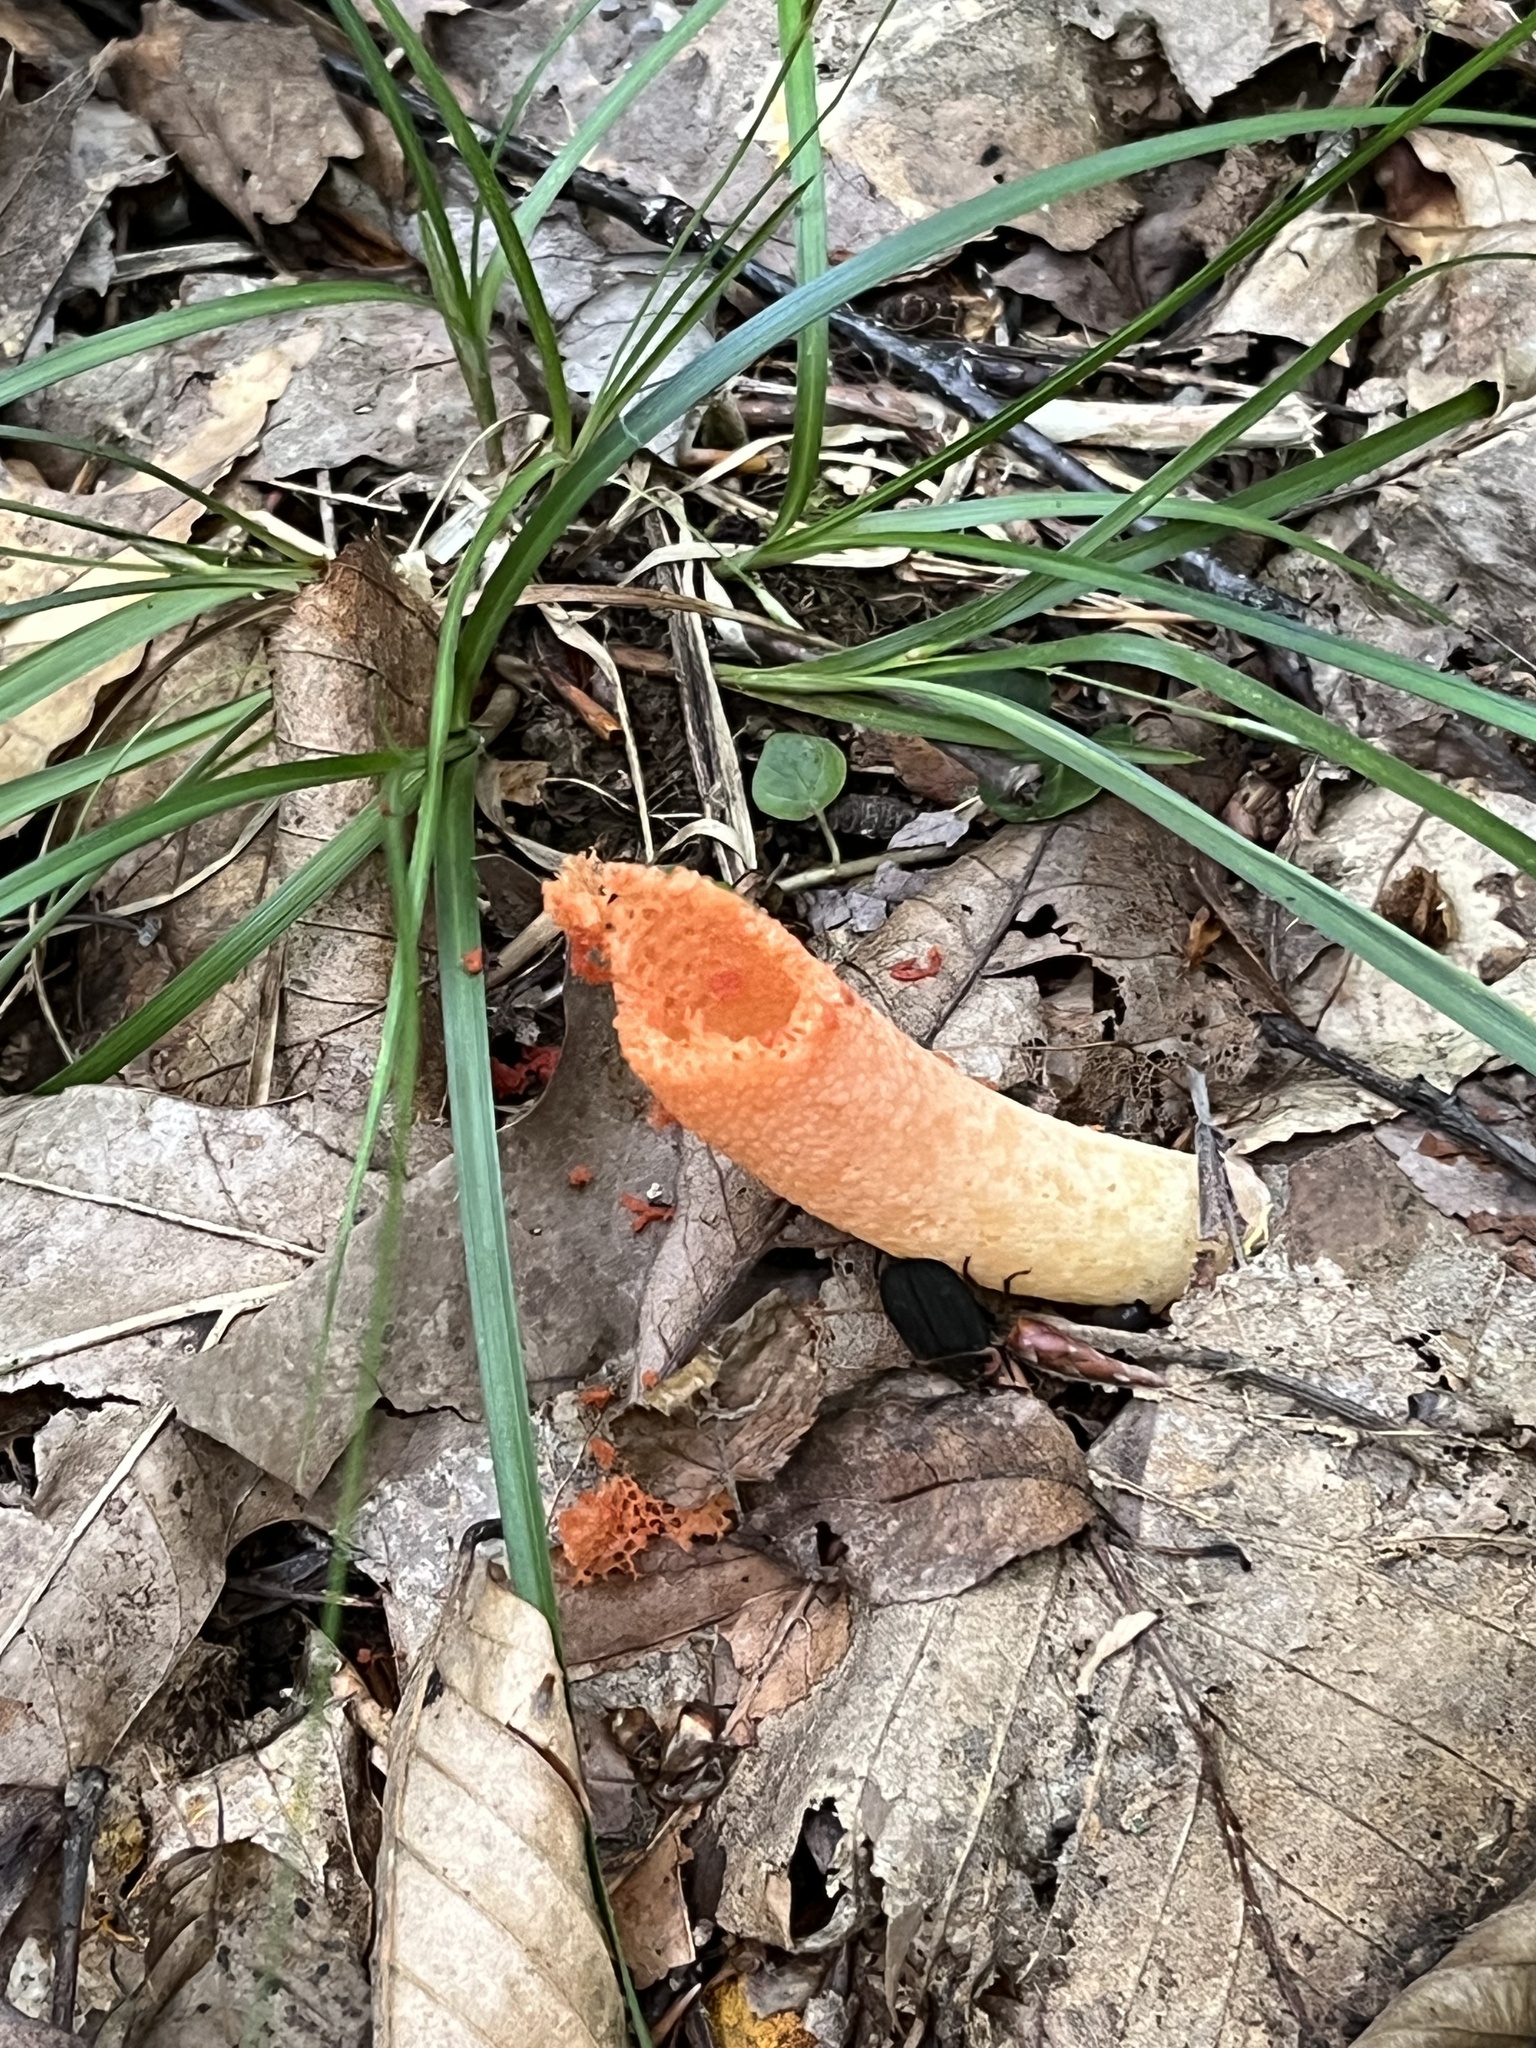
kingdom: Fungi
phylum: Basidiomycota
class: Agaricomycetes
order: Phallales
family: Phallaceae
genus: Mutinus
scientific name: Mutinus elegans
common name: Devil's dipstick
